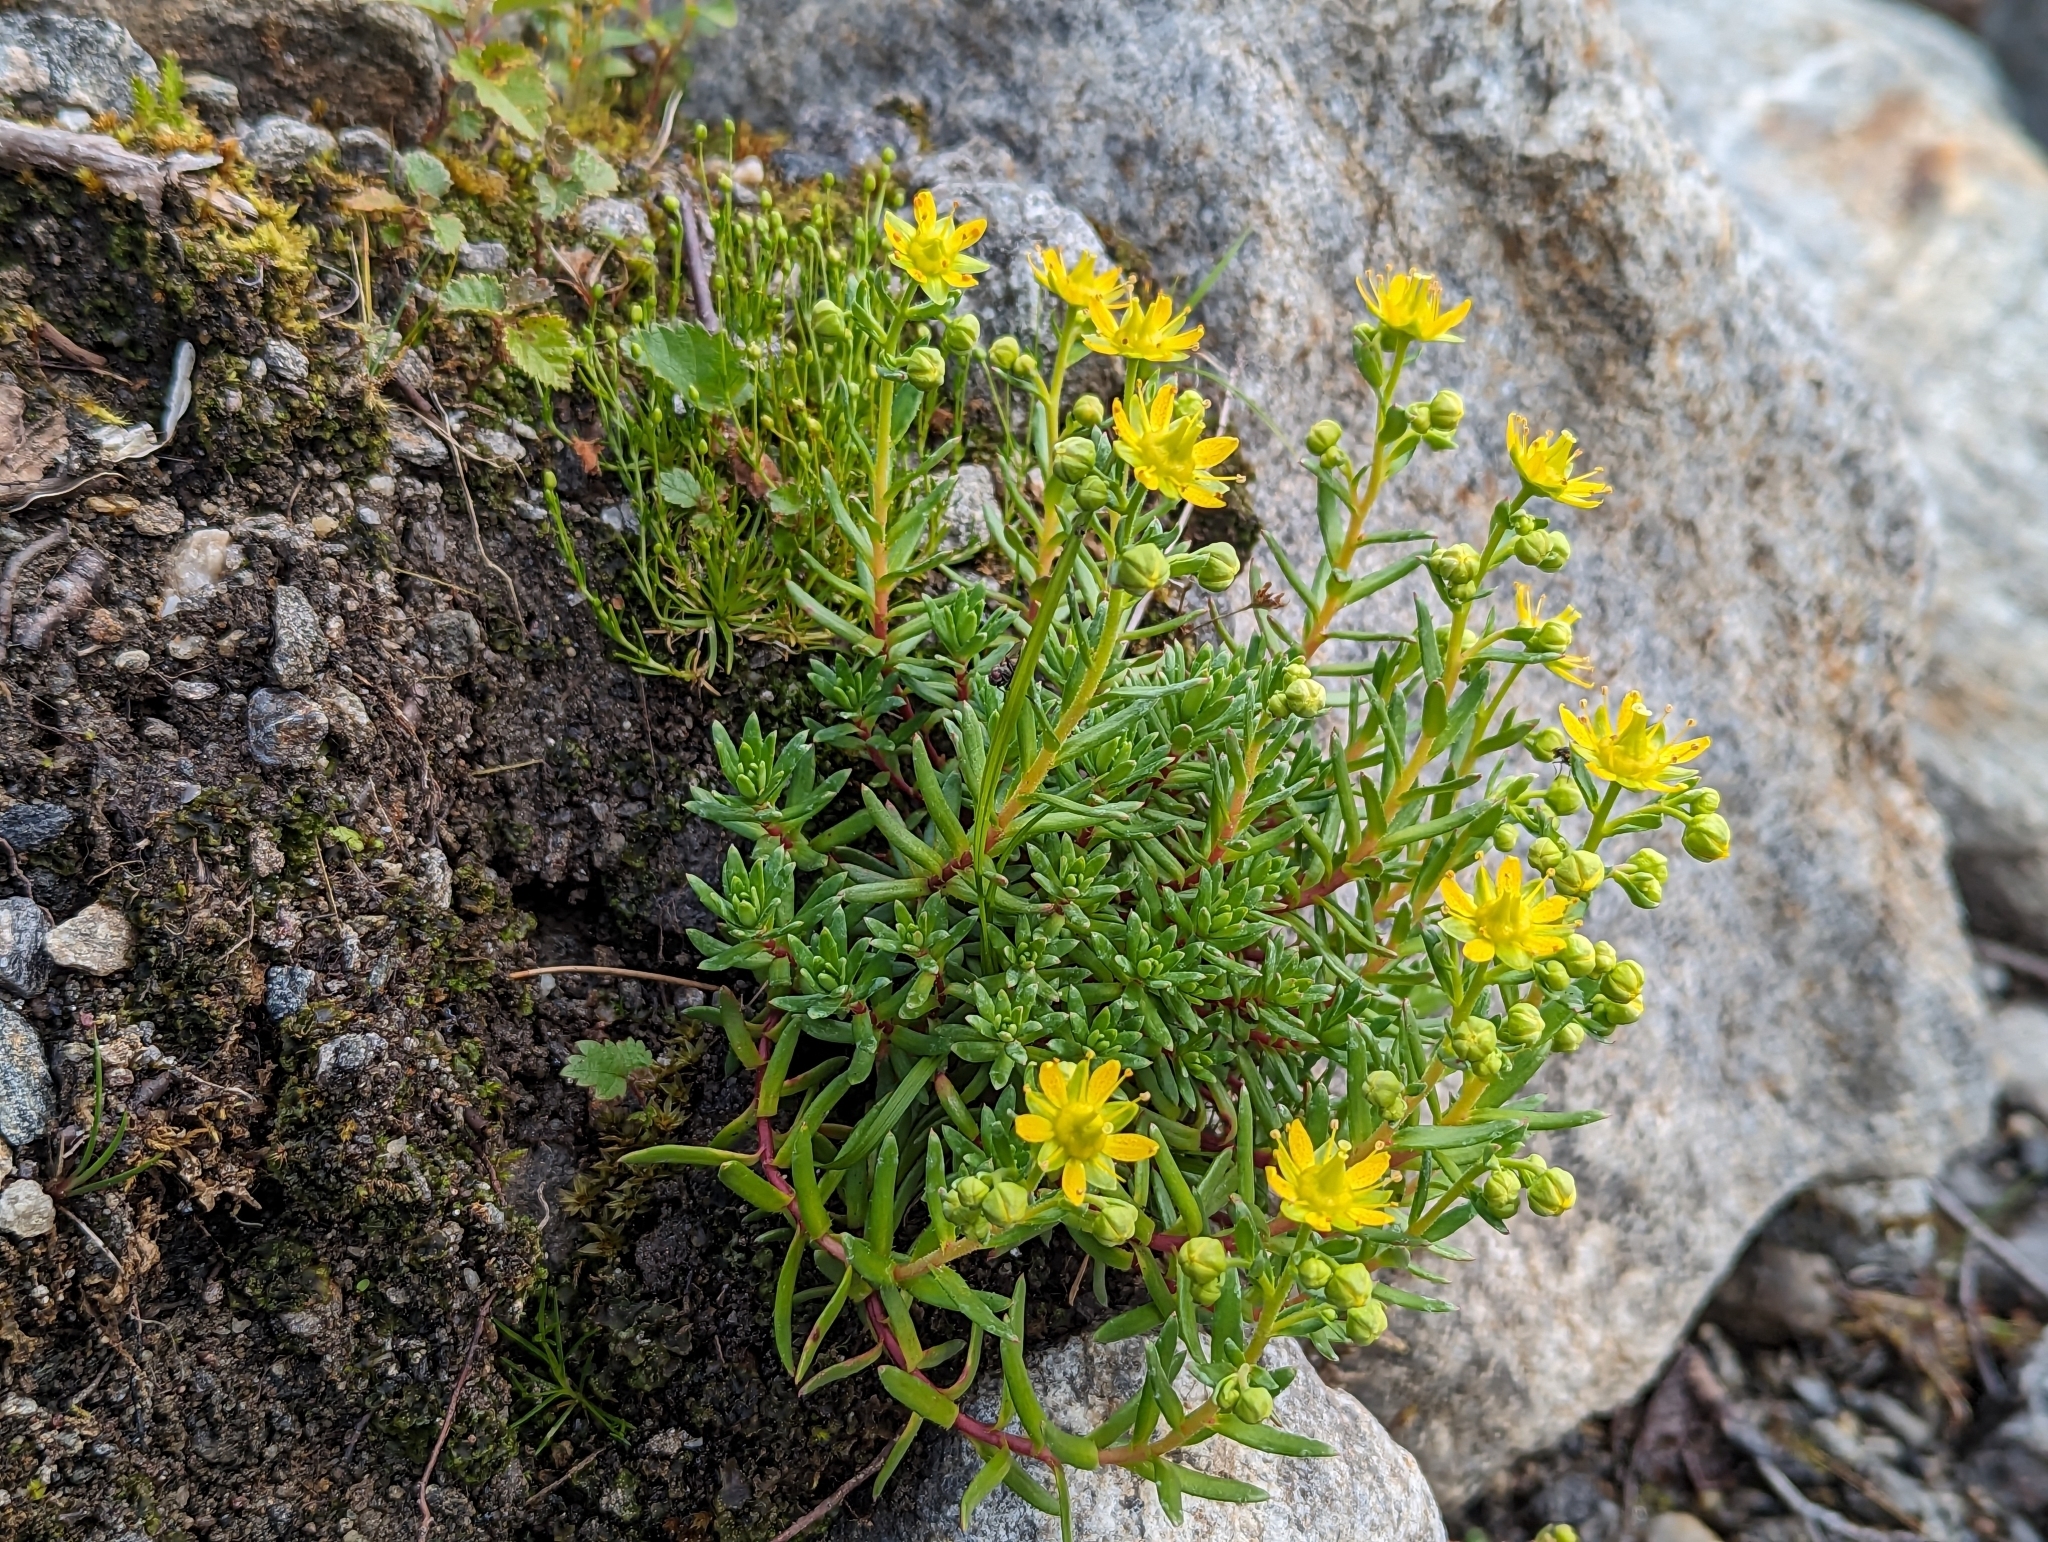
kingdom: Plantae
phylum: Tracheophyta
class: Magnoliopsida
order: Saxifragales
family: Saxifragaceae
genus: Saxifraga
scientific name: Saxifraga aizoides
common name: Yellow mountain saxifrage
